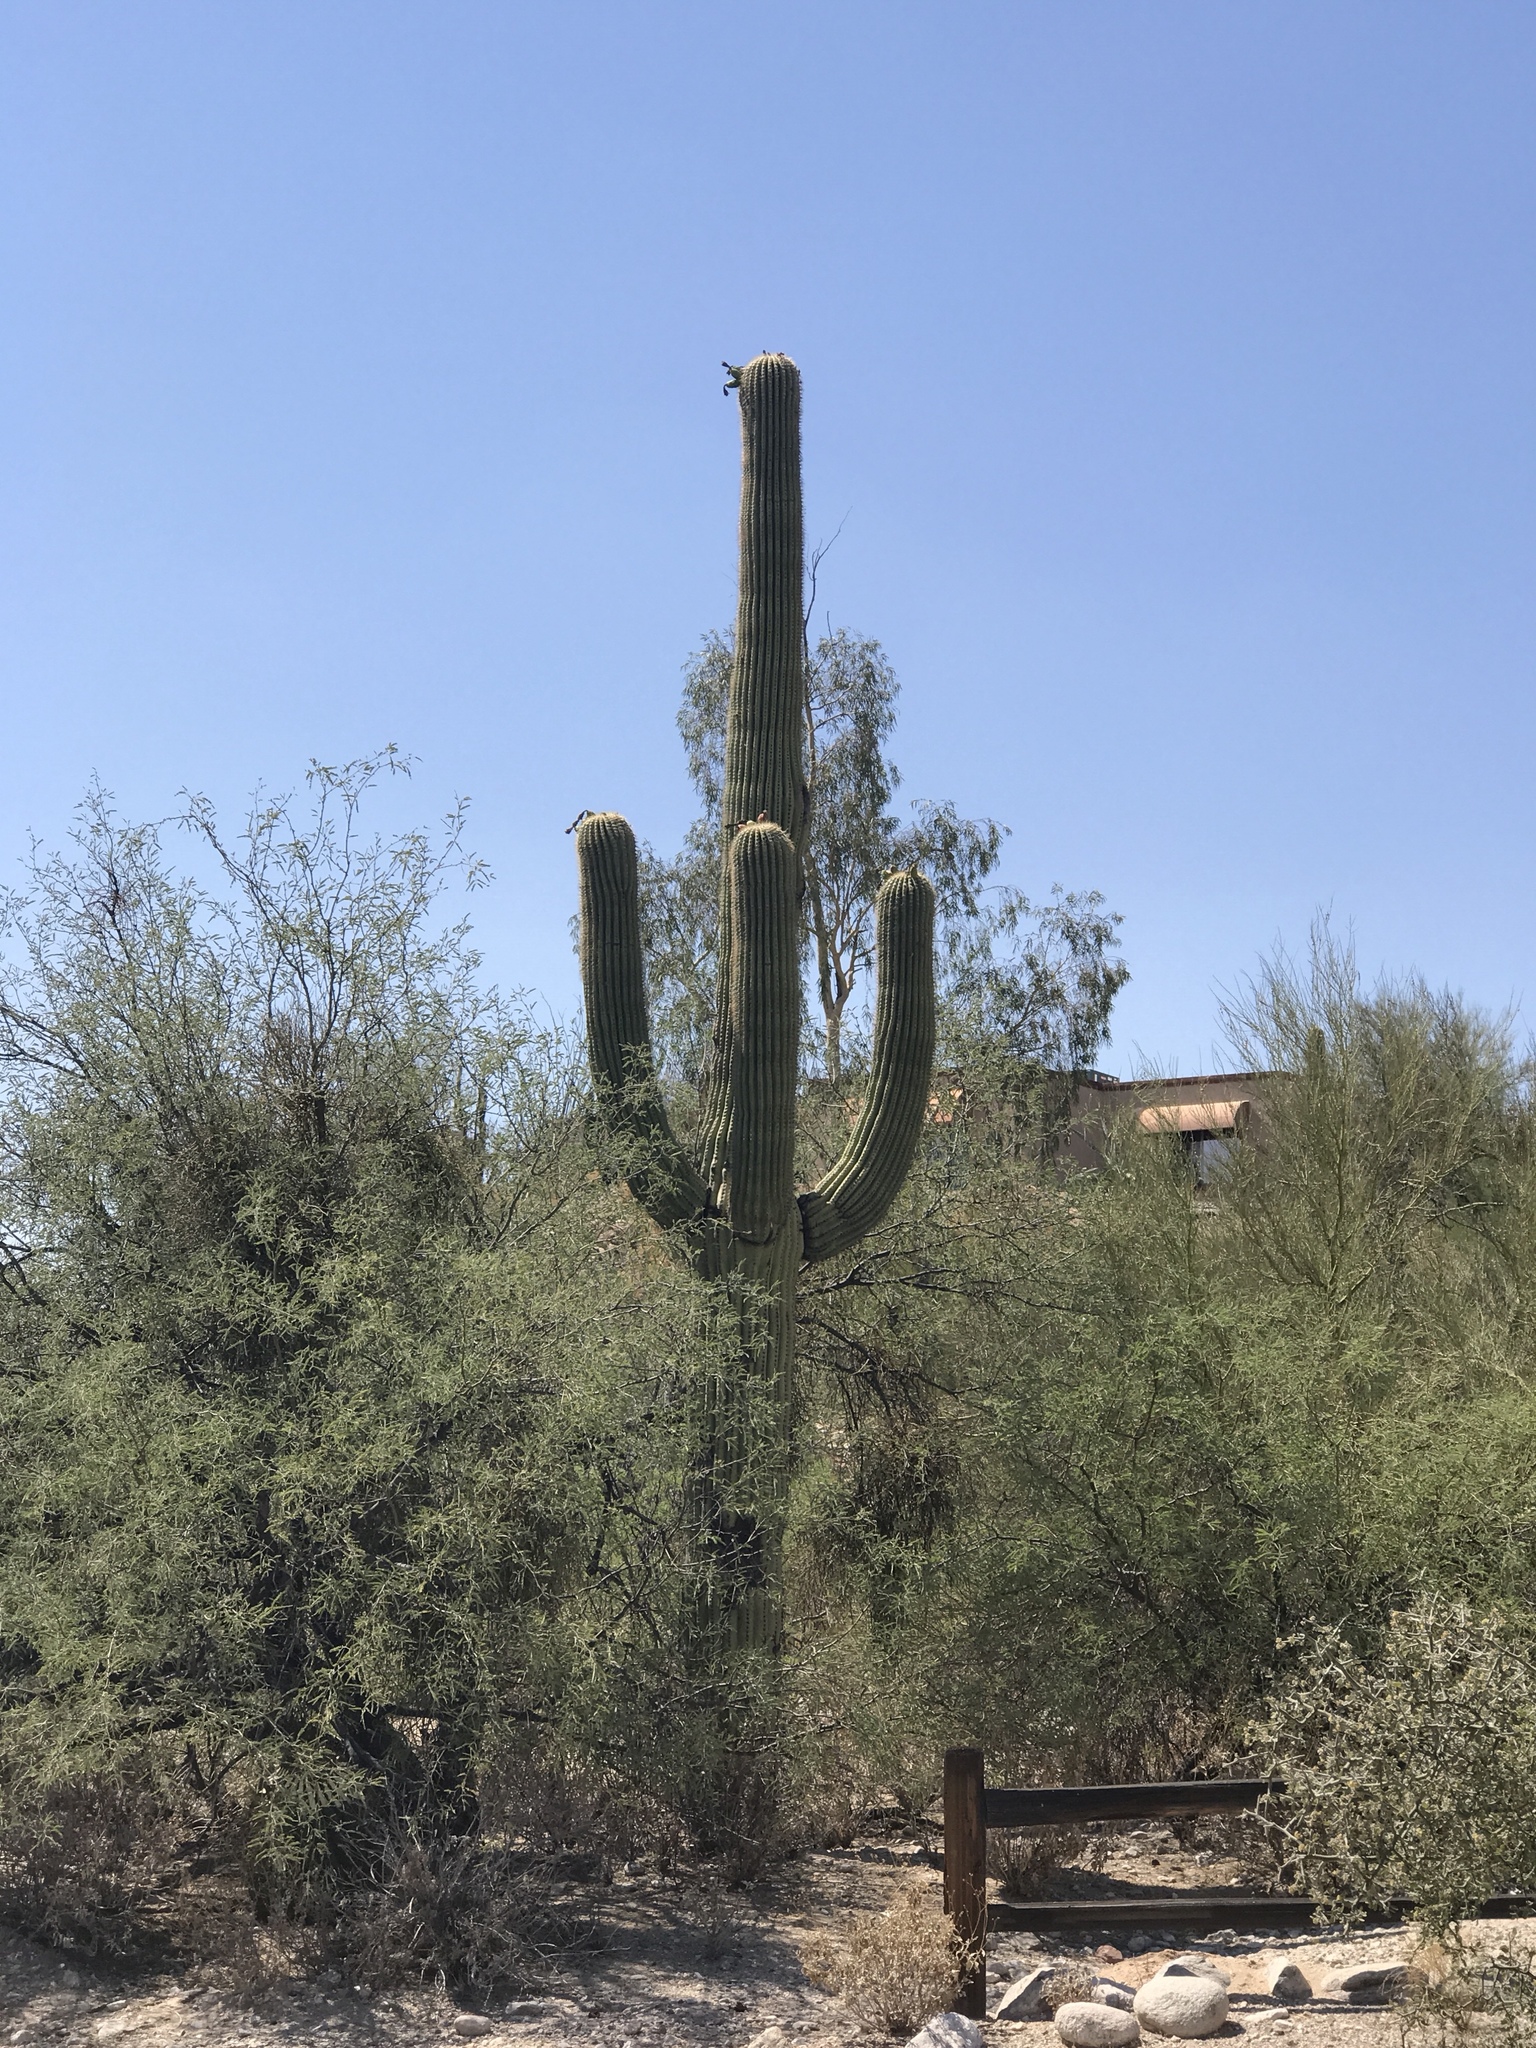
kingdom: Plantae
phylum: Tracheophyta
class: Magnoliopsida
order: Caryophyllales
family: Cactaceae
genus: Carnegiea
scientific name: Carnegiea gigantea
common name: Saguaro
